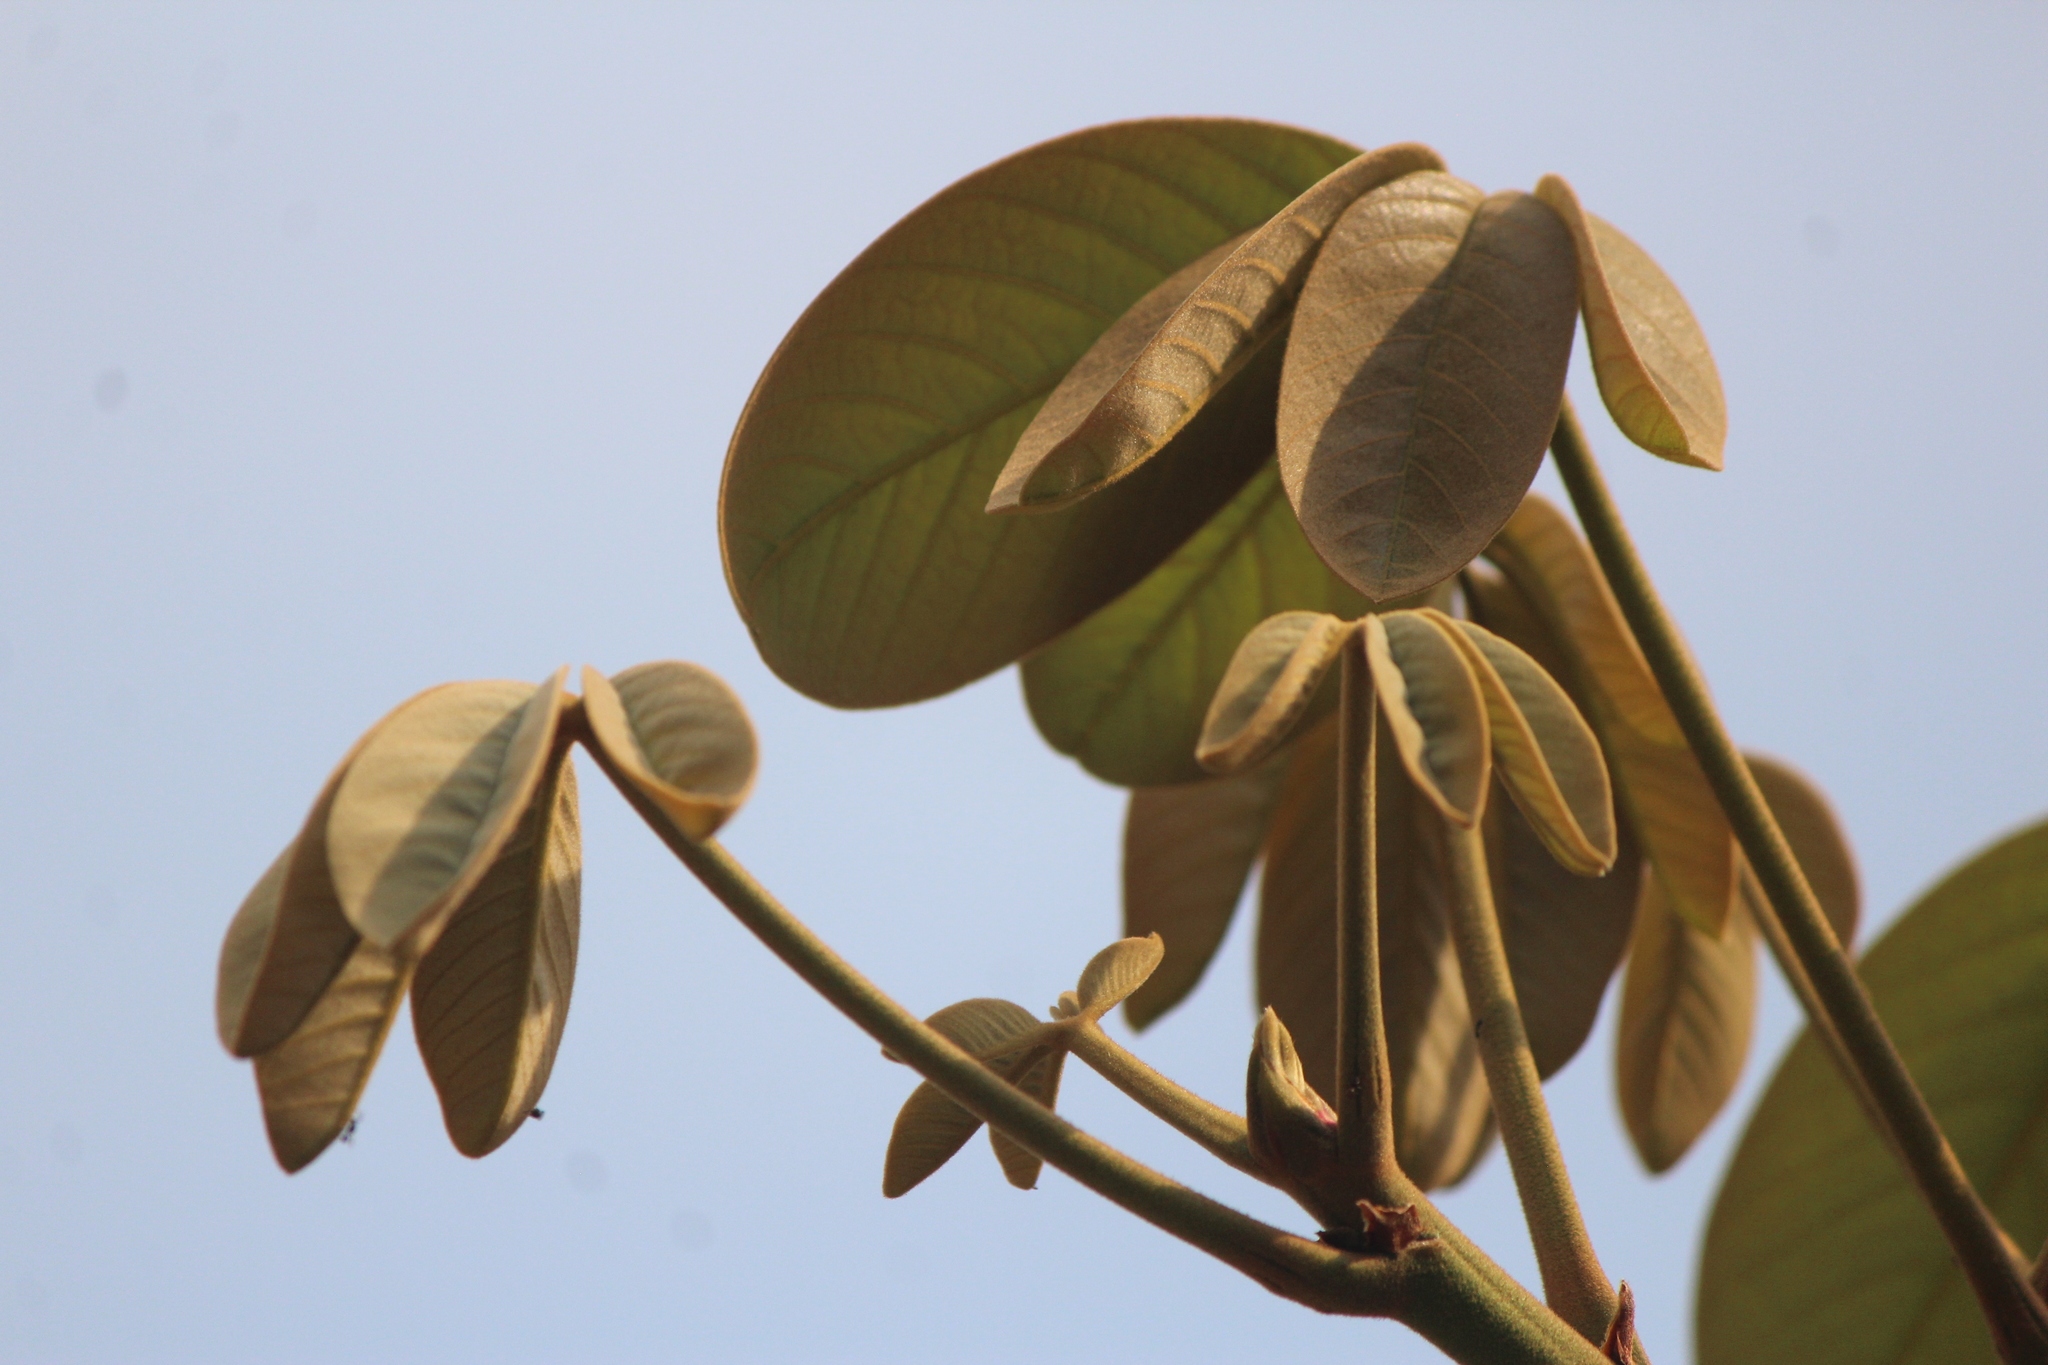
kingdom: Plantae
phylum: Tracheophyta
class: Magnoliopsida
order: Malvales
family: Malvaceae
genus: Pseudobombax
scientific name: Pseudobombax ellipticum
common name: Shaving-brush-tree
